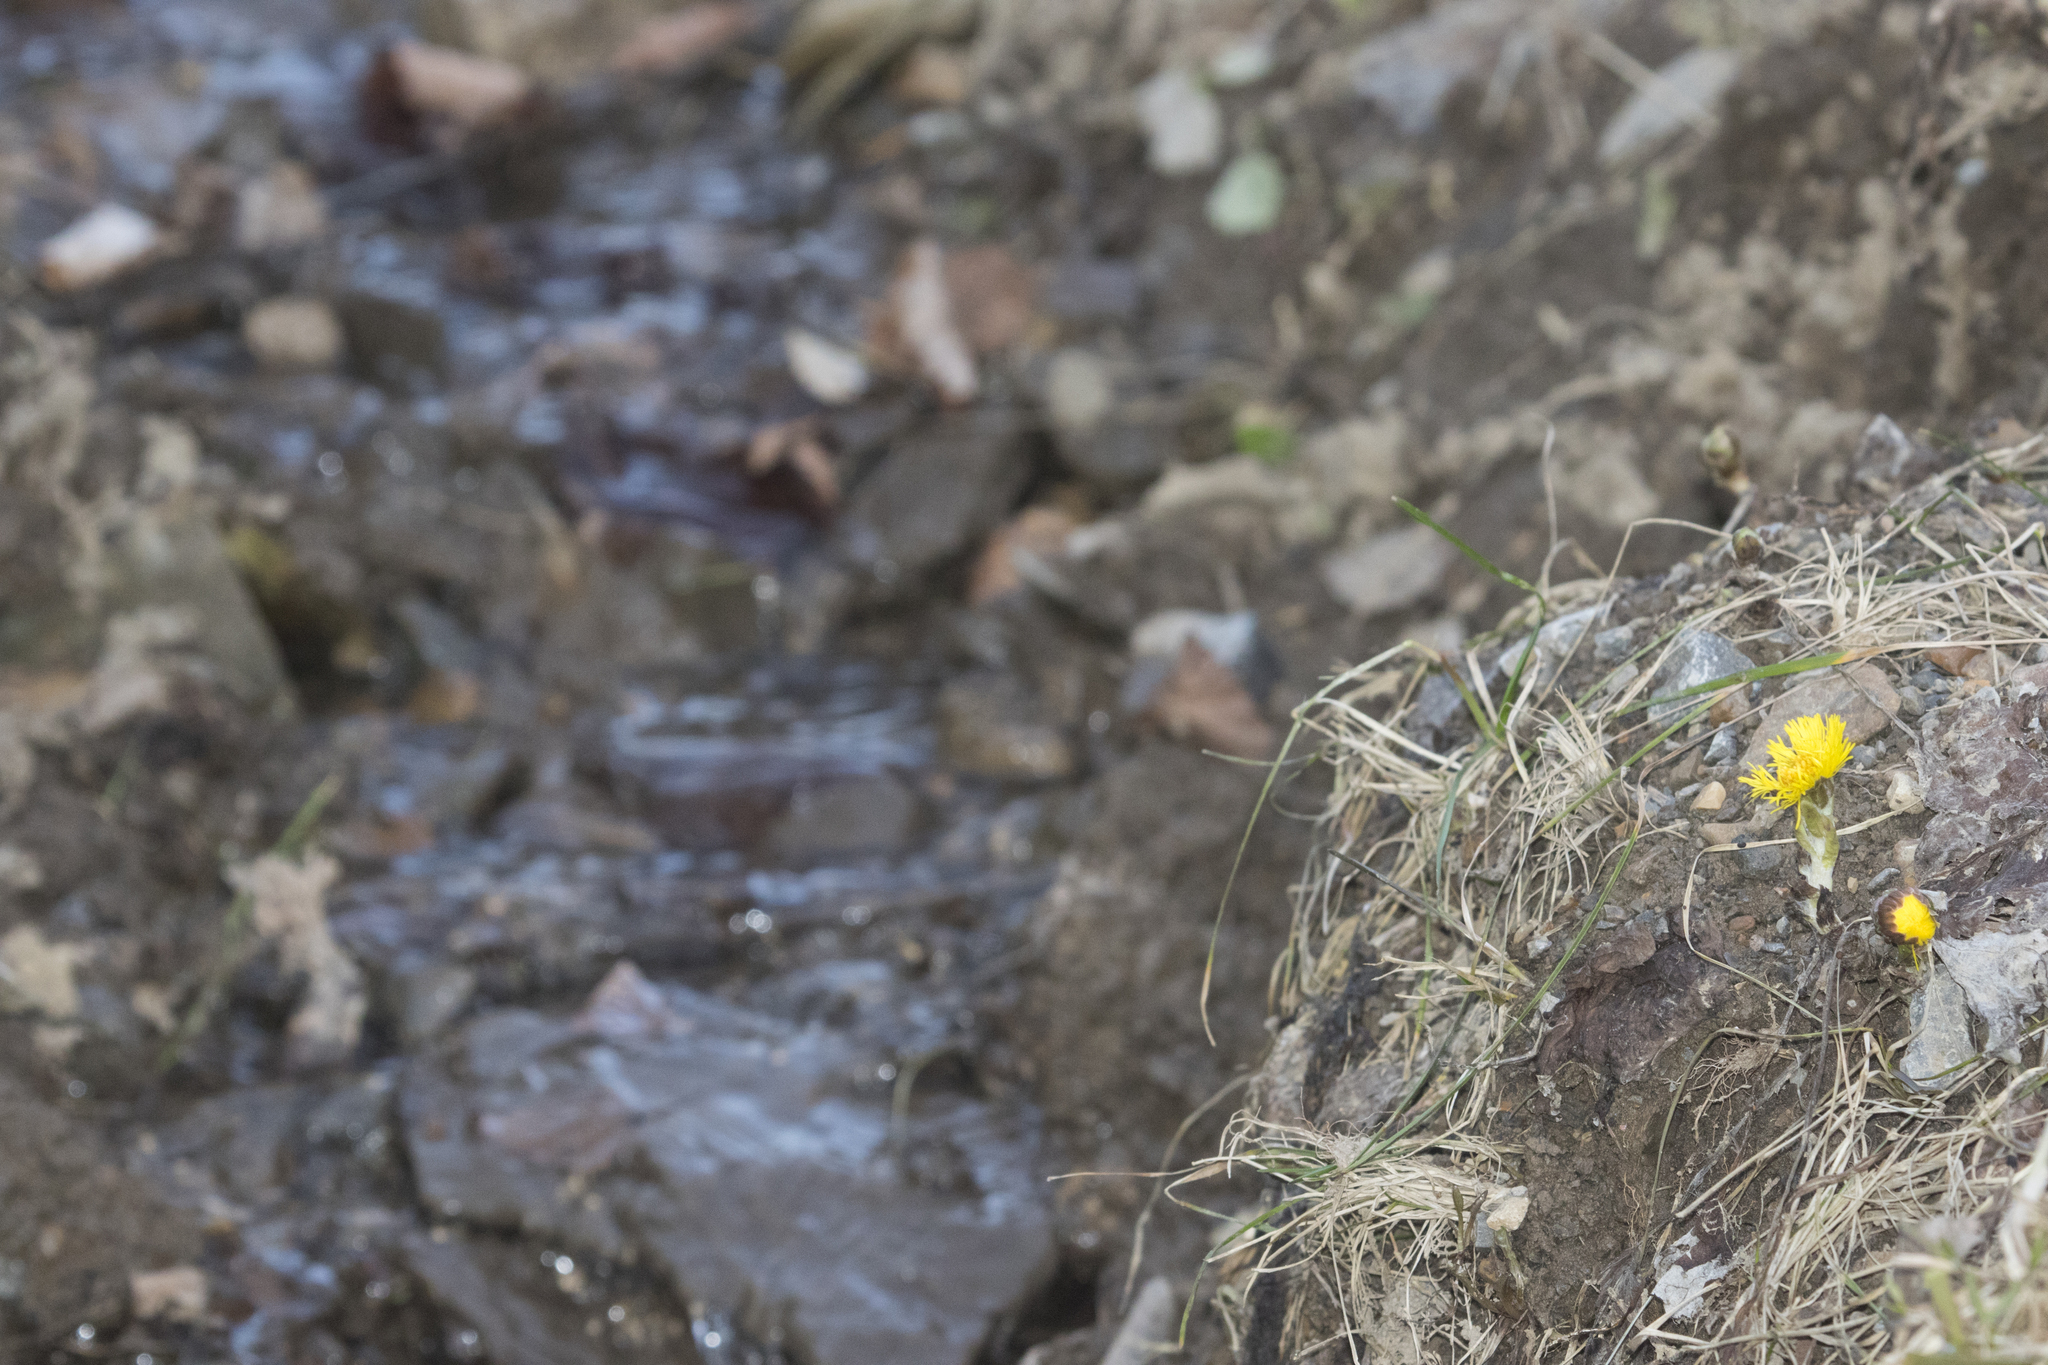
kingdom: Plantae
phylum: Tracheophyta
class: Magnoliopsida
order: Asterales
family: Asteraceae
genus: Tussilago
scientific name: Tussilago farfara
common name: Coltsfoot
